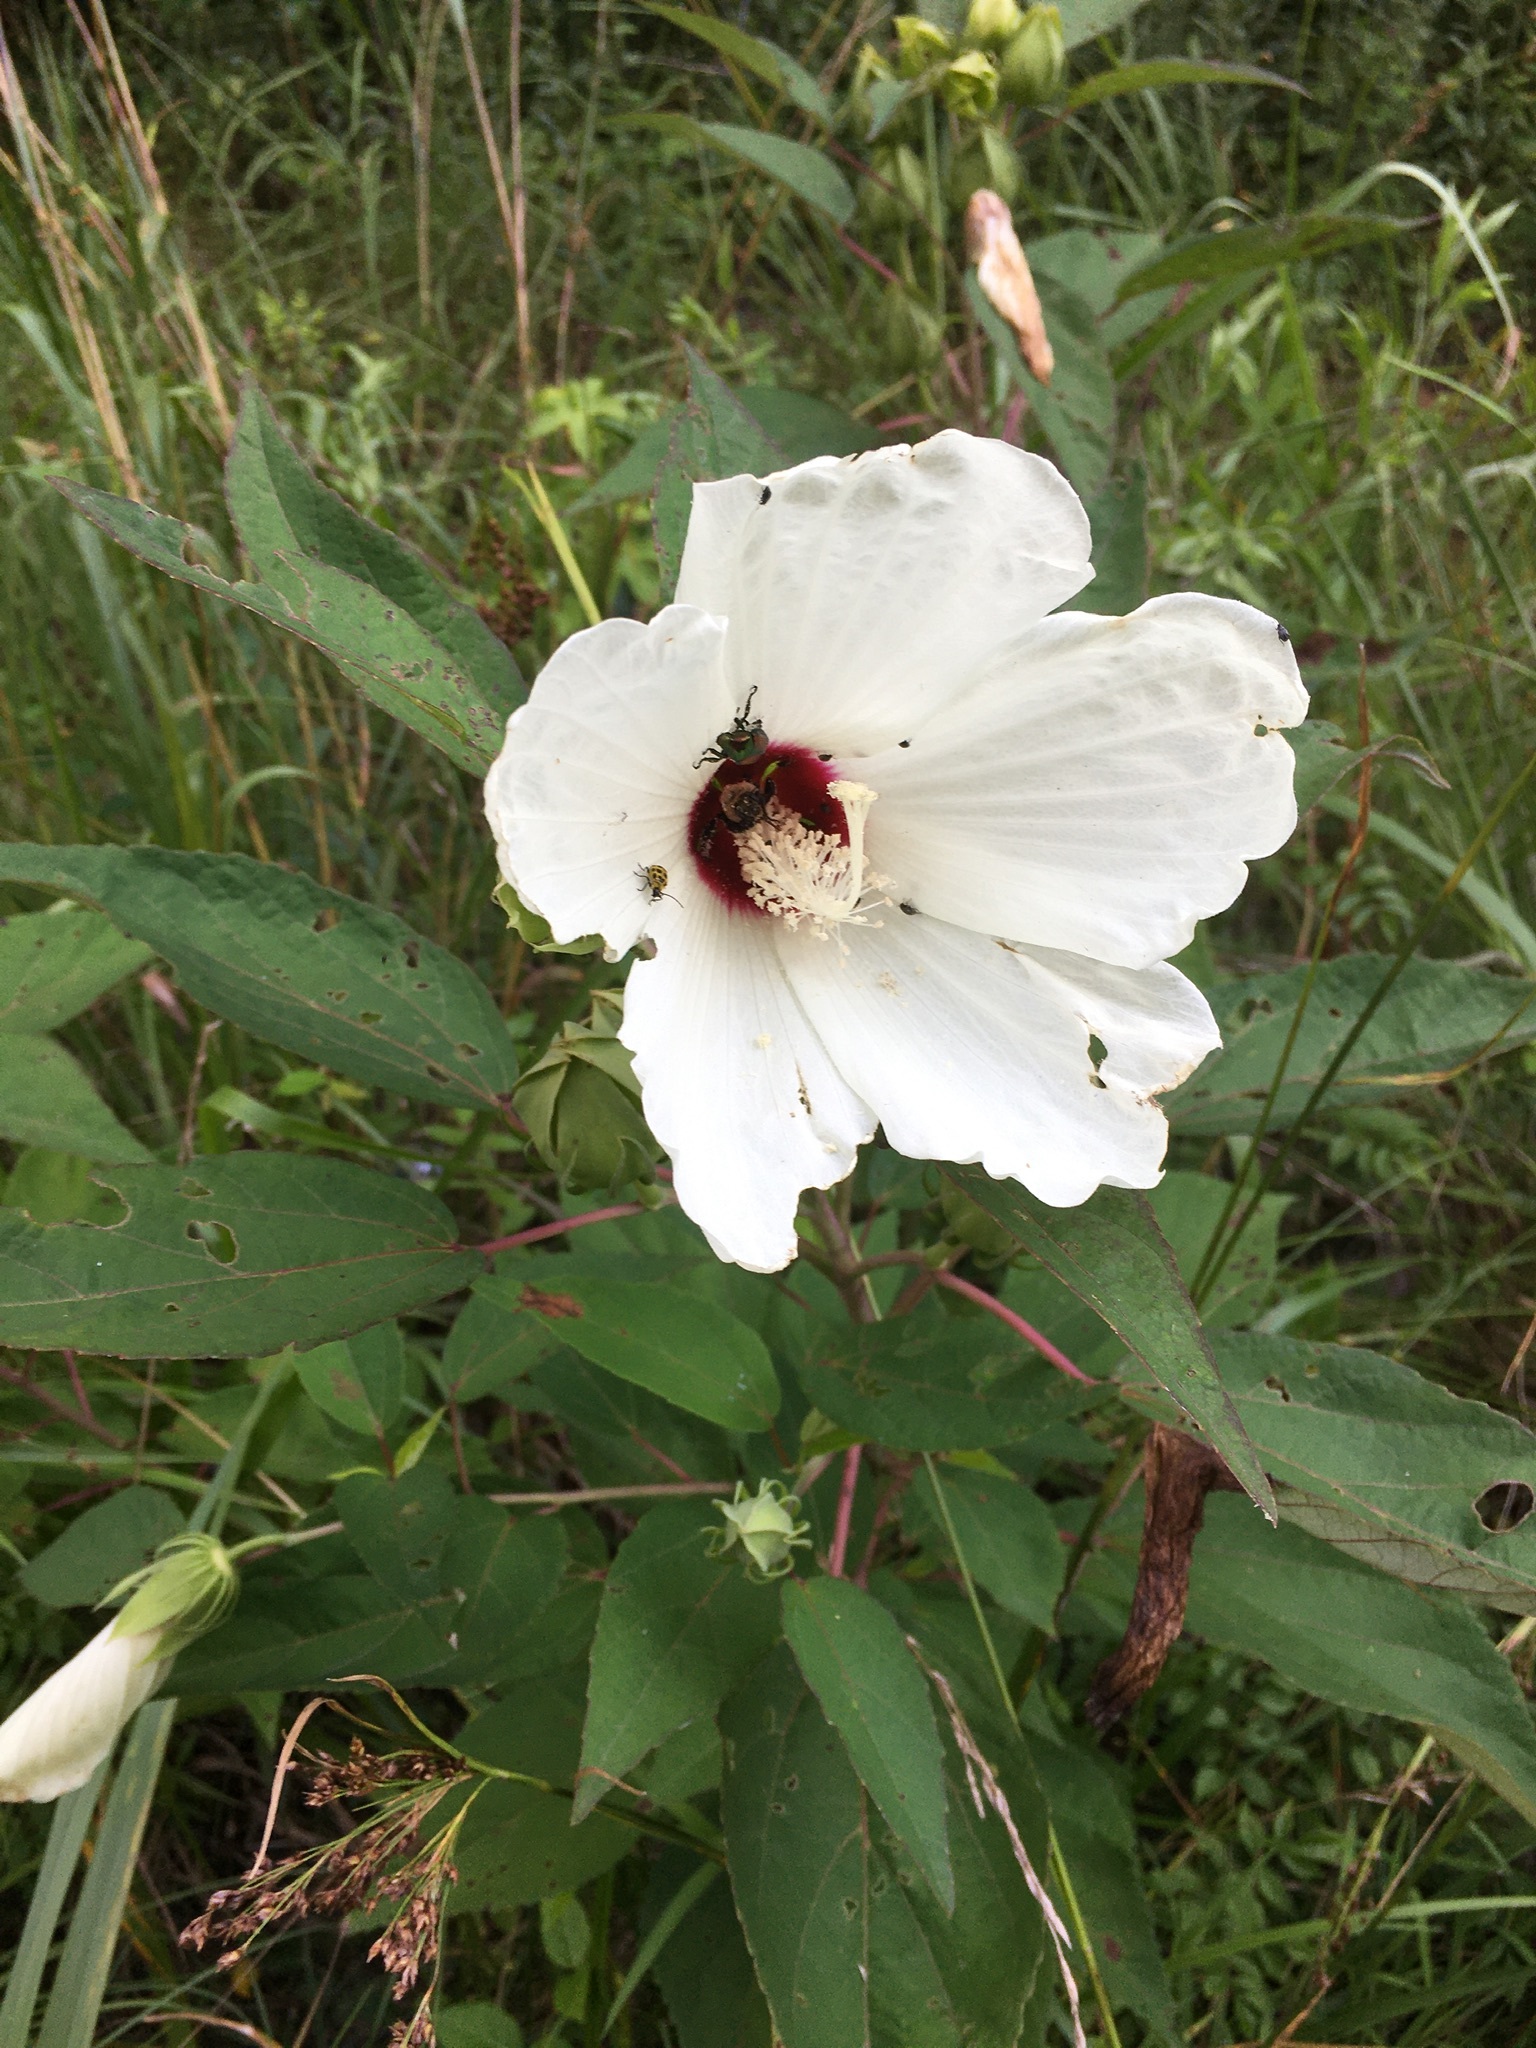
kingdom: Plantae
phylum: Tracheophyta
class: Magnoliopsida
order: Malvales
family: Malvaceae
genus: Hibiscus
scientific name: Hibiscus moscheutos
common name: Common rose-mallow
